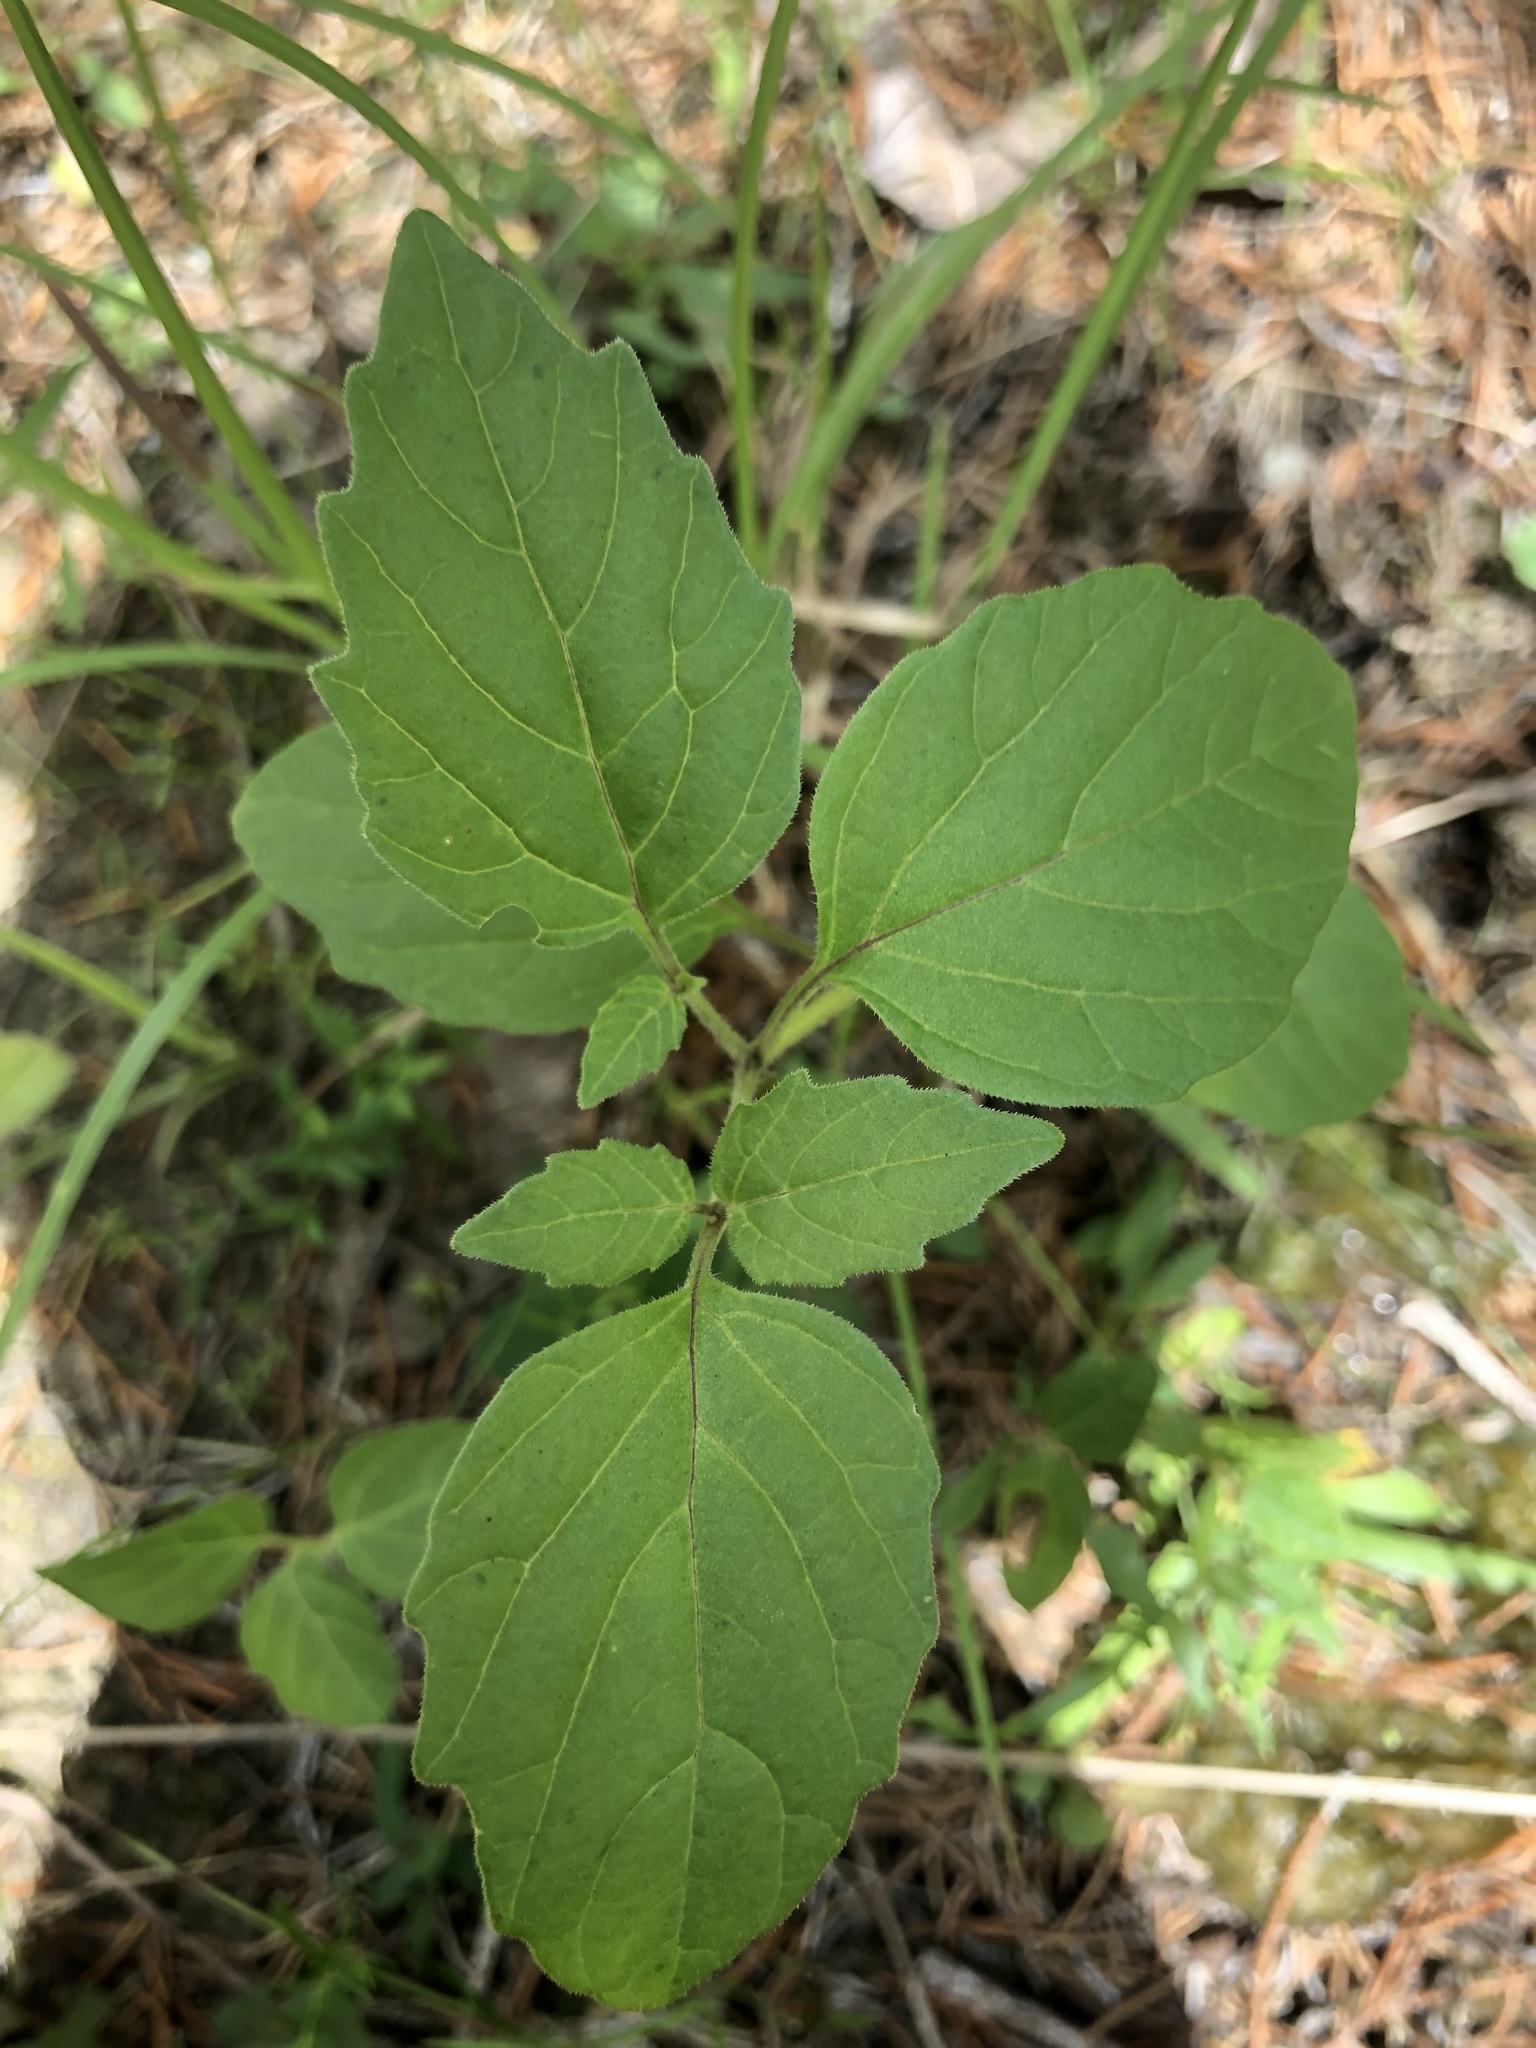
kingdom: Plantae
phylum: Tracheophyta
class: Magnoliopsida
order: Solanales
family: Solanaceae
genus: Physalis
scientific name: Physalis virginiana
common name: Virginia ground-cherry
